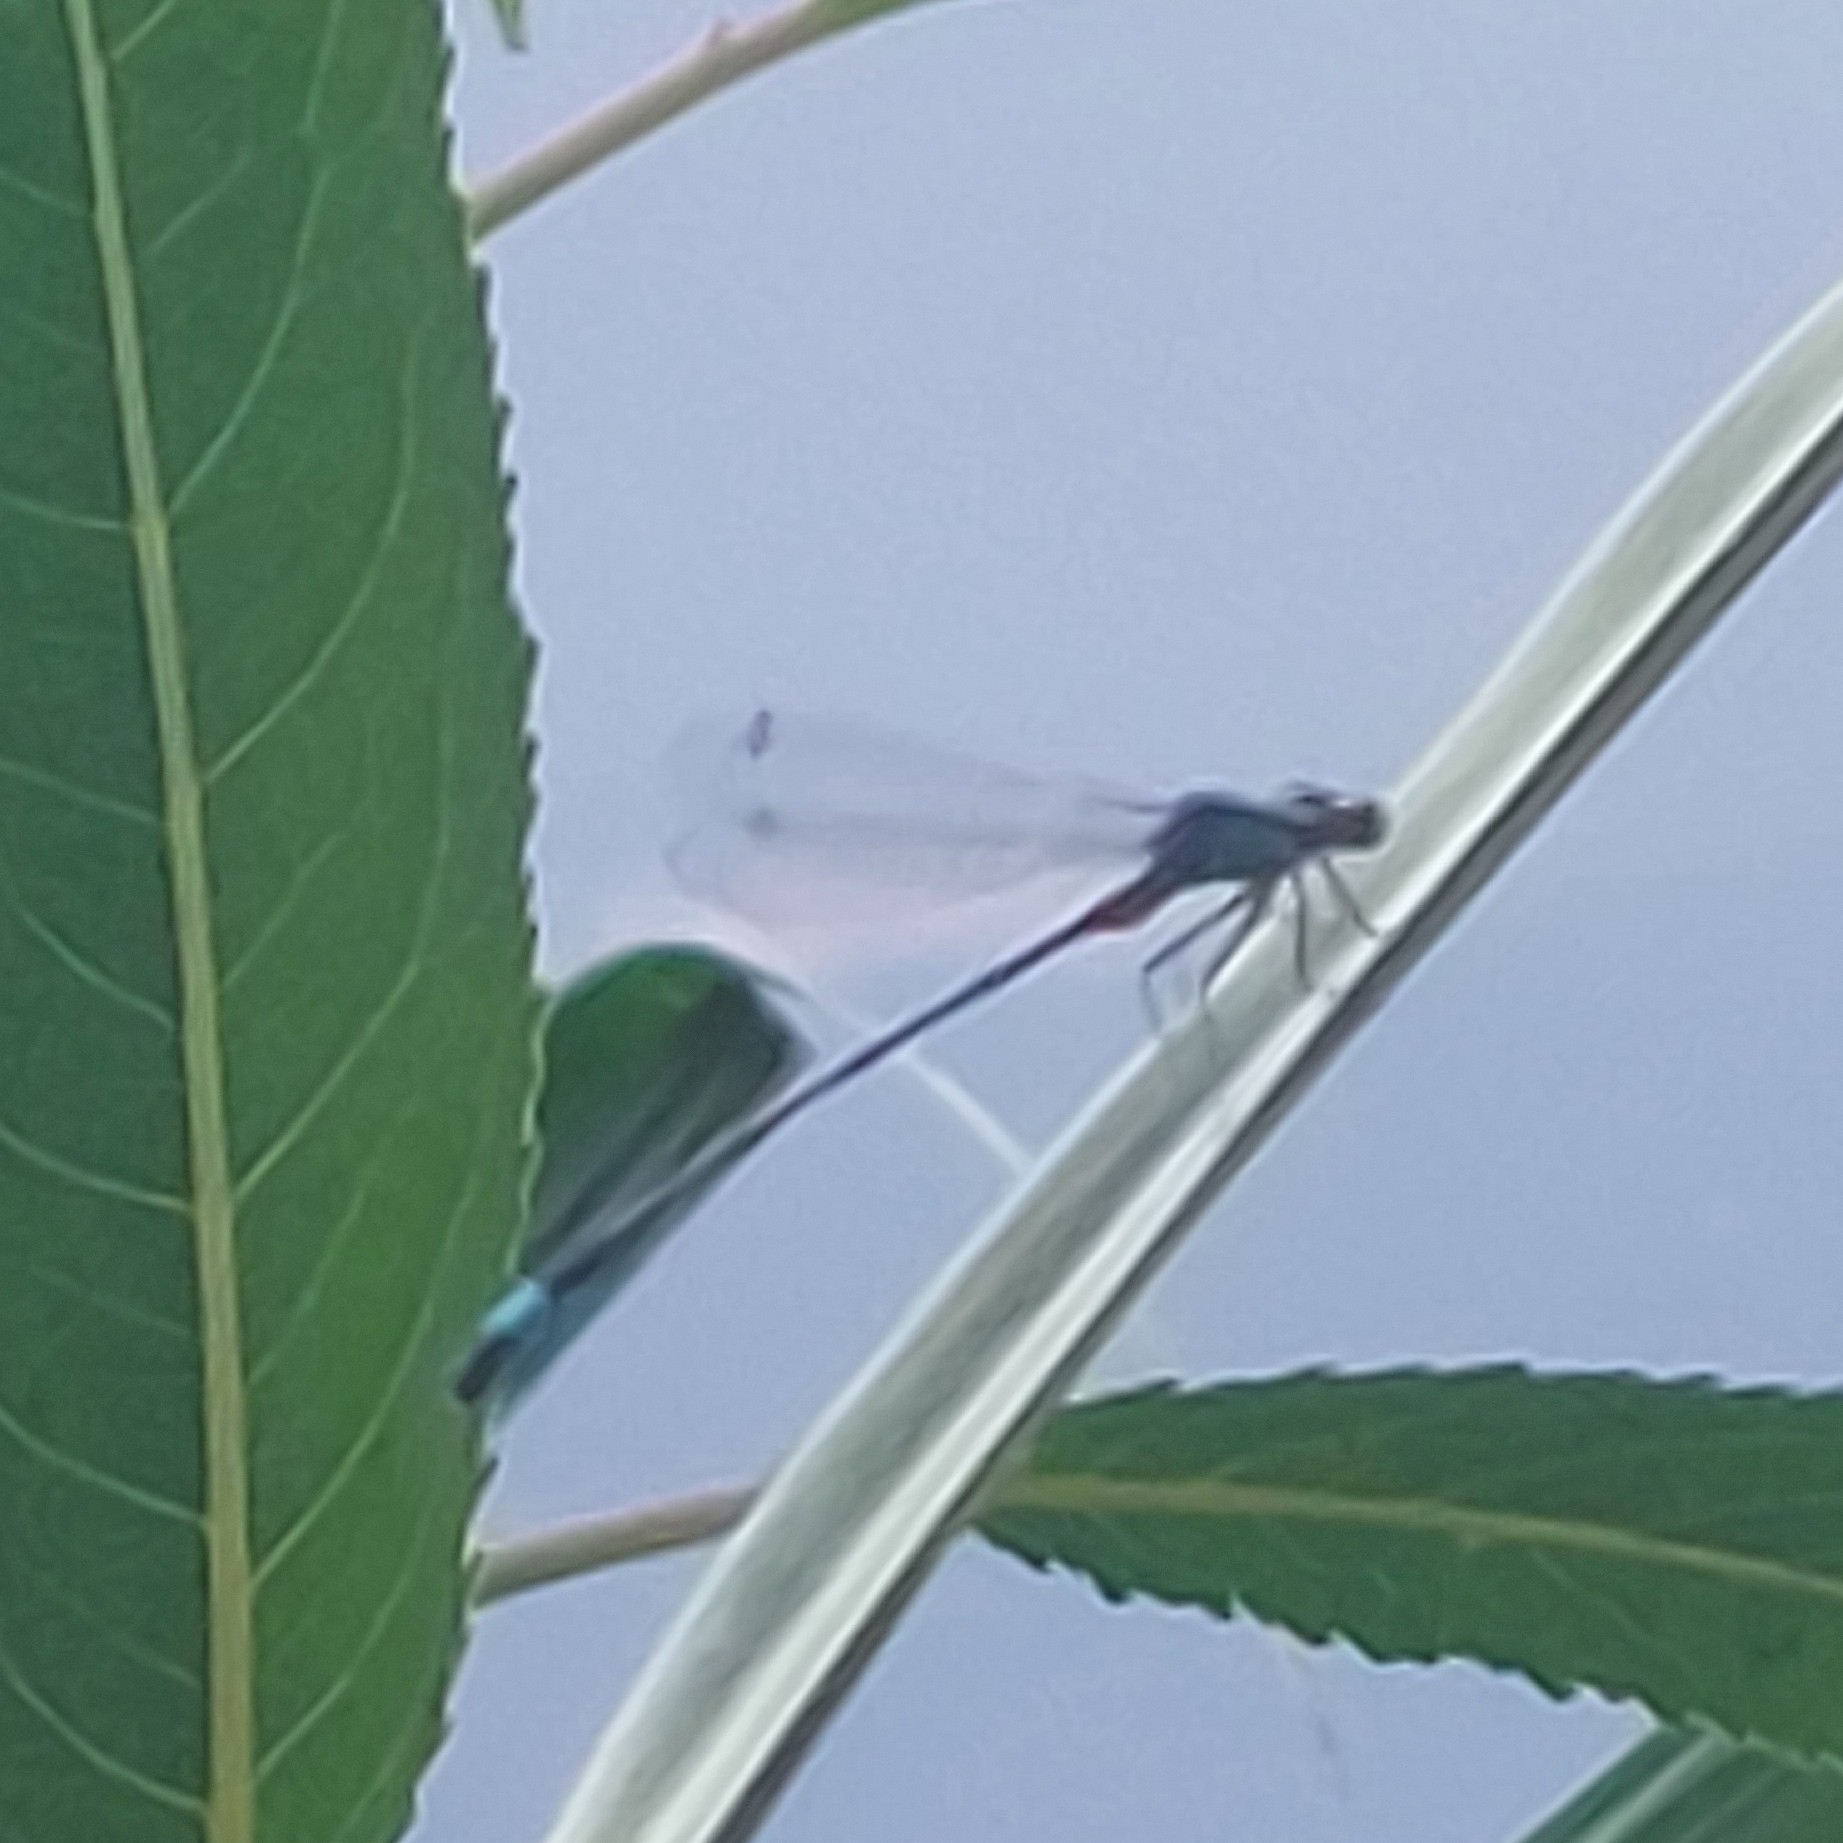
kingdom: Animalia
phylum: Arthropoda
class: Insecta
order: Odonata
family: Coenagrionidae
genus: Ischnura
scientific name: Ischnura elegans
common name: Blue-tailed damselfly
